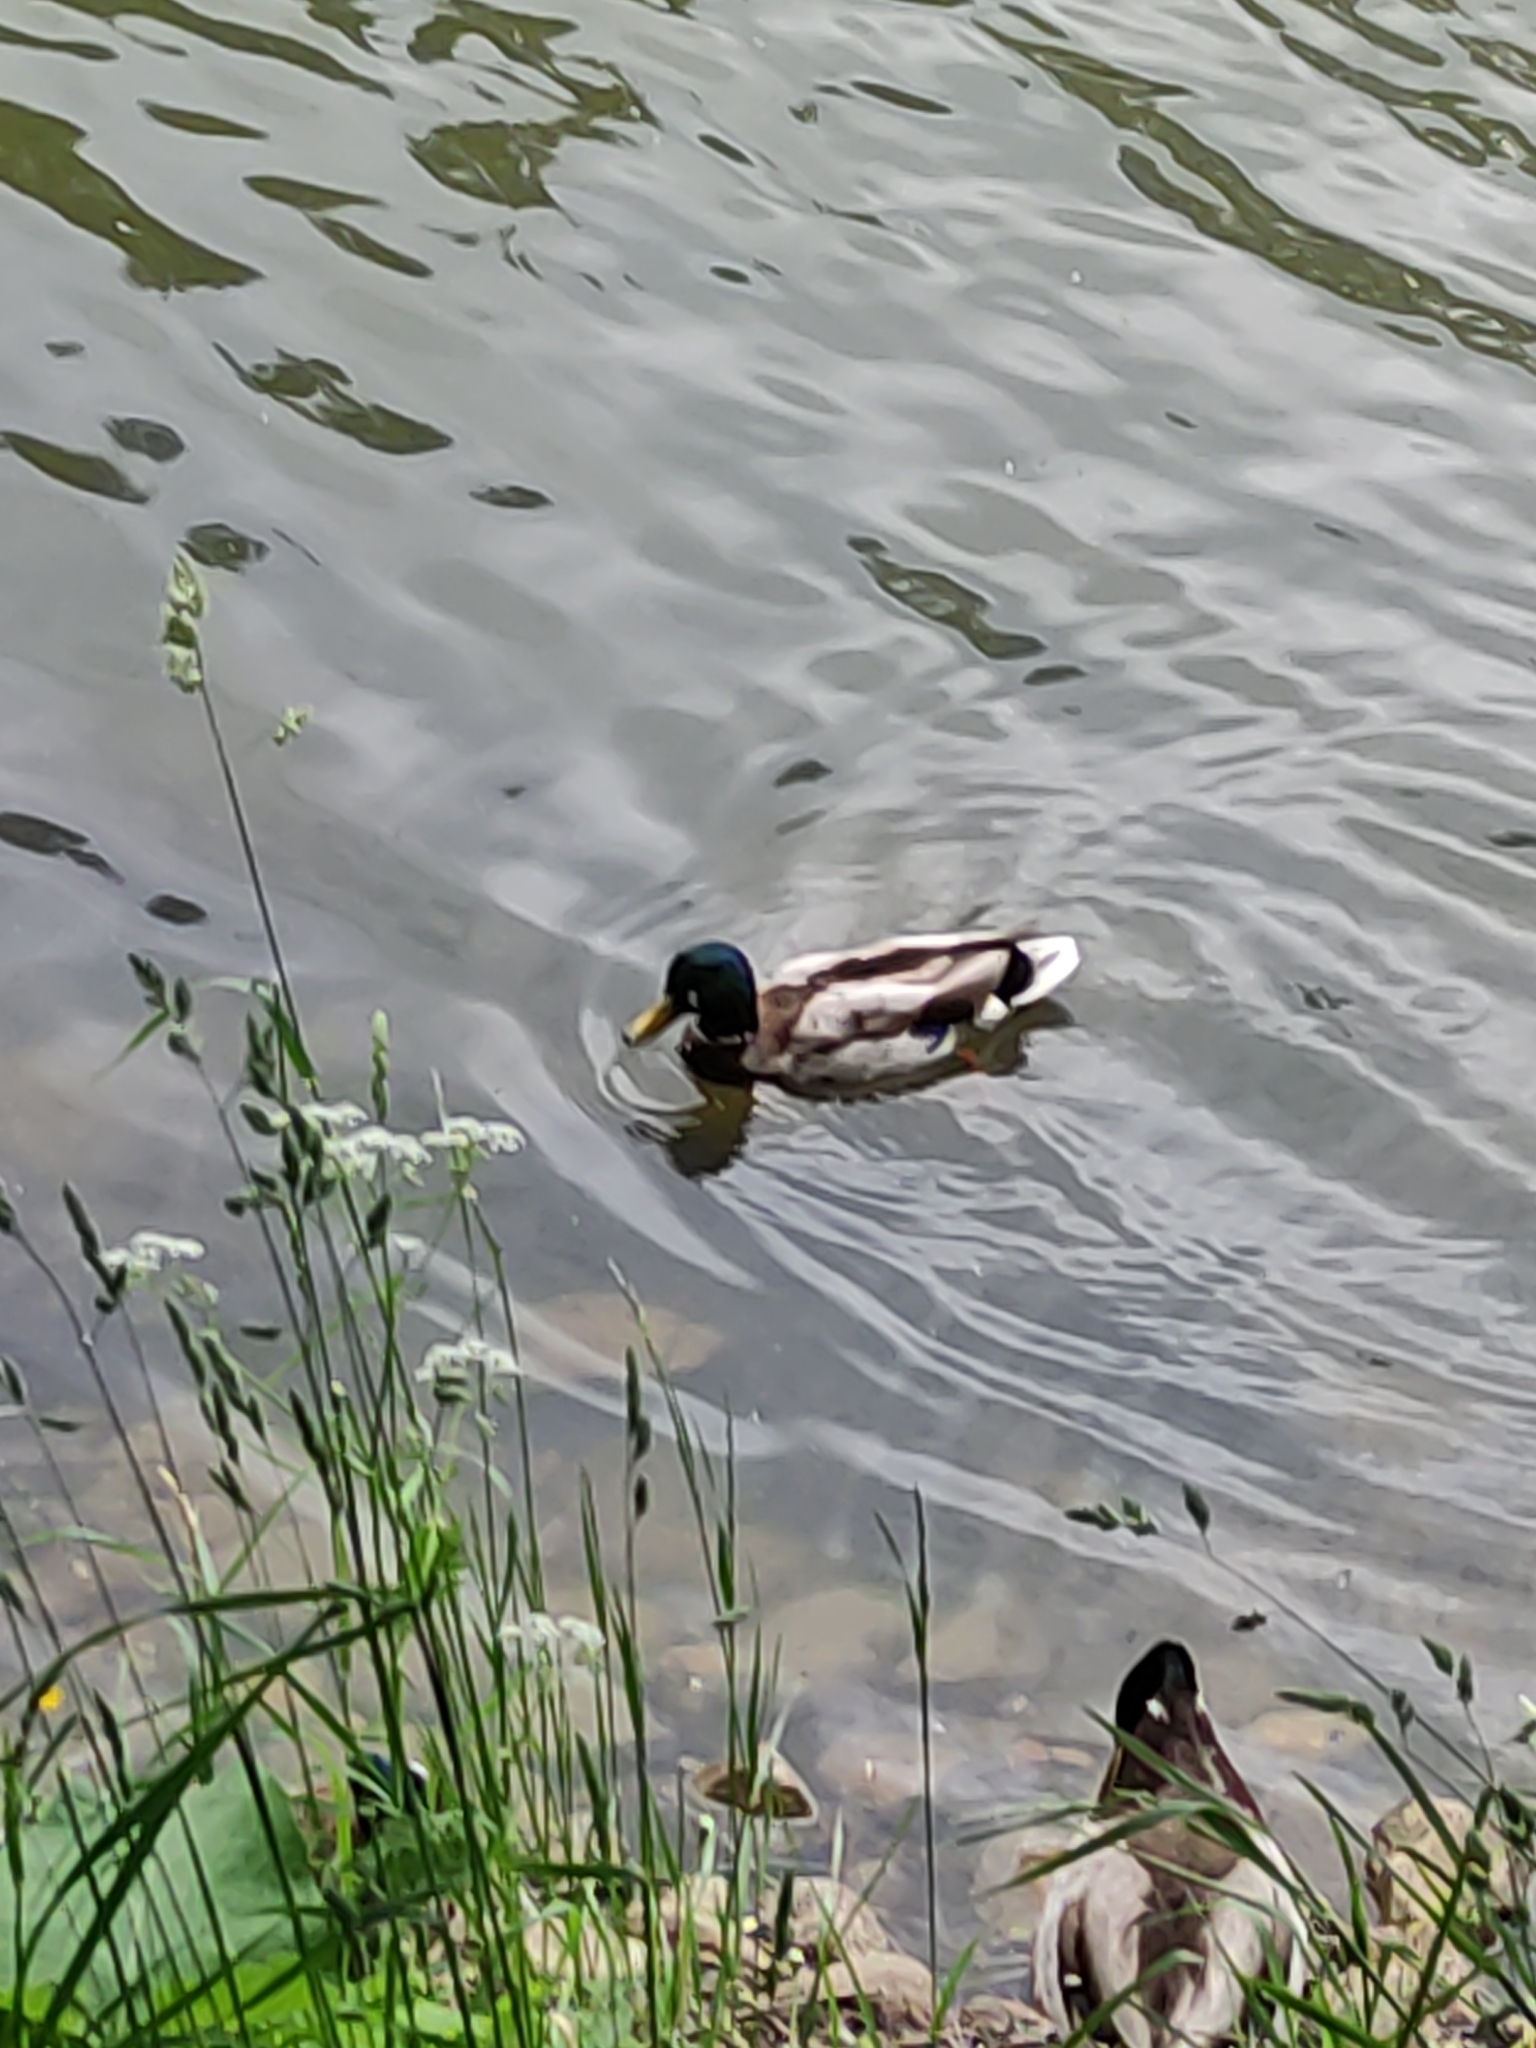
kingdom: Animalia
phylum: Chordata
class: Aves
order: Anseriformes
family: Anatidae
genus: Anas
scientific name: Anas platyrhynchos
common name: Mallard
